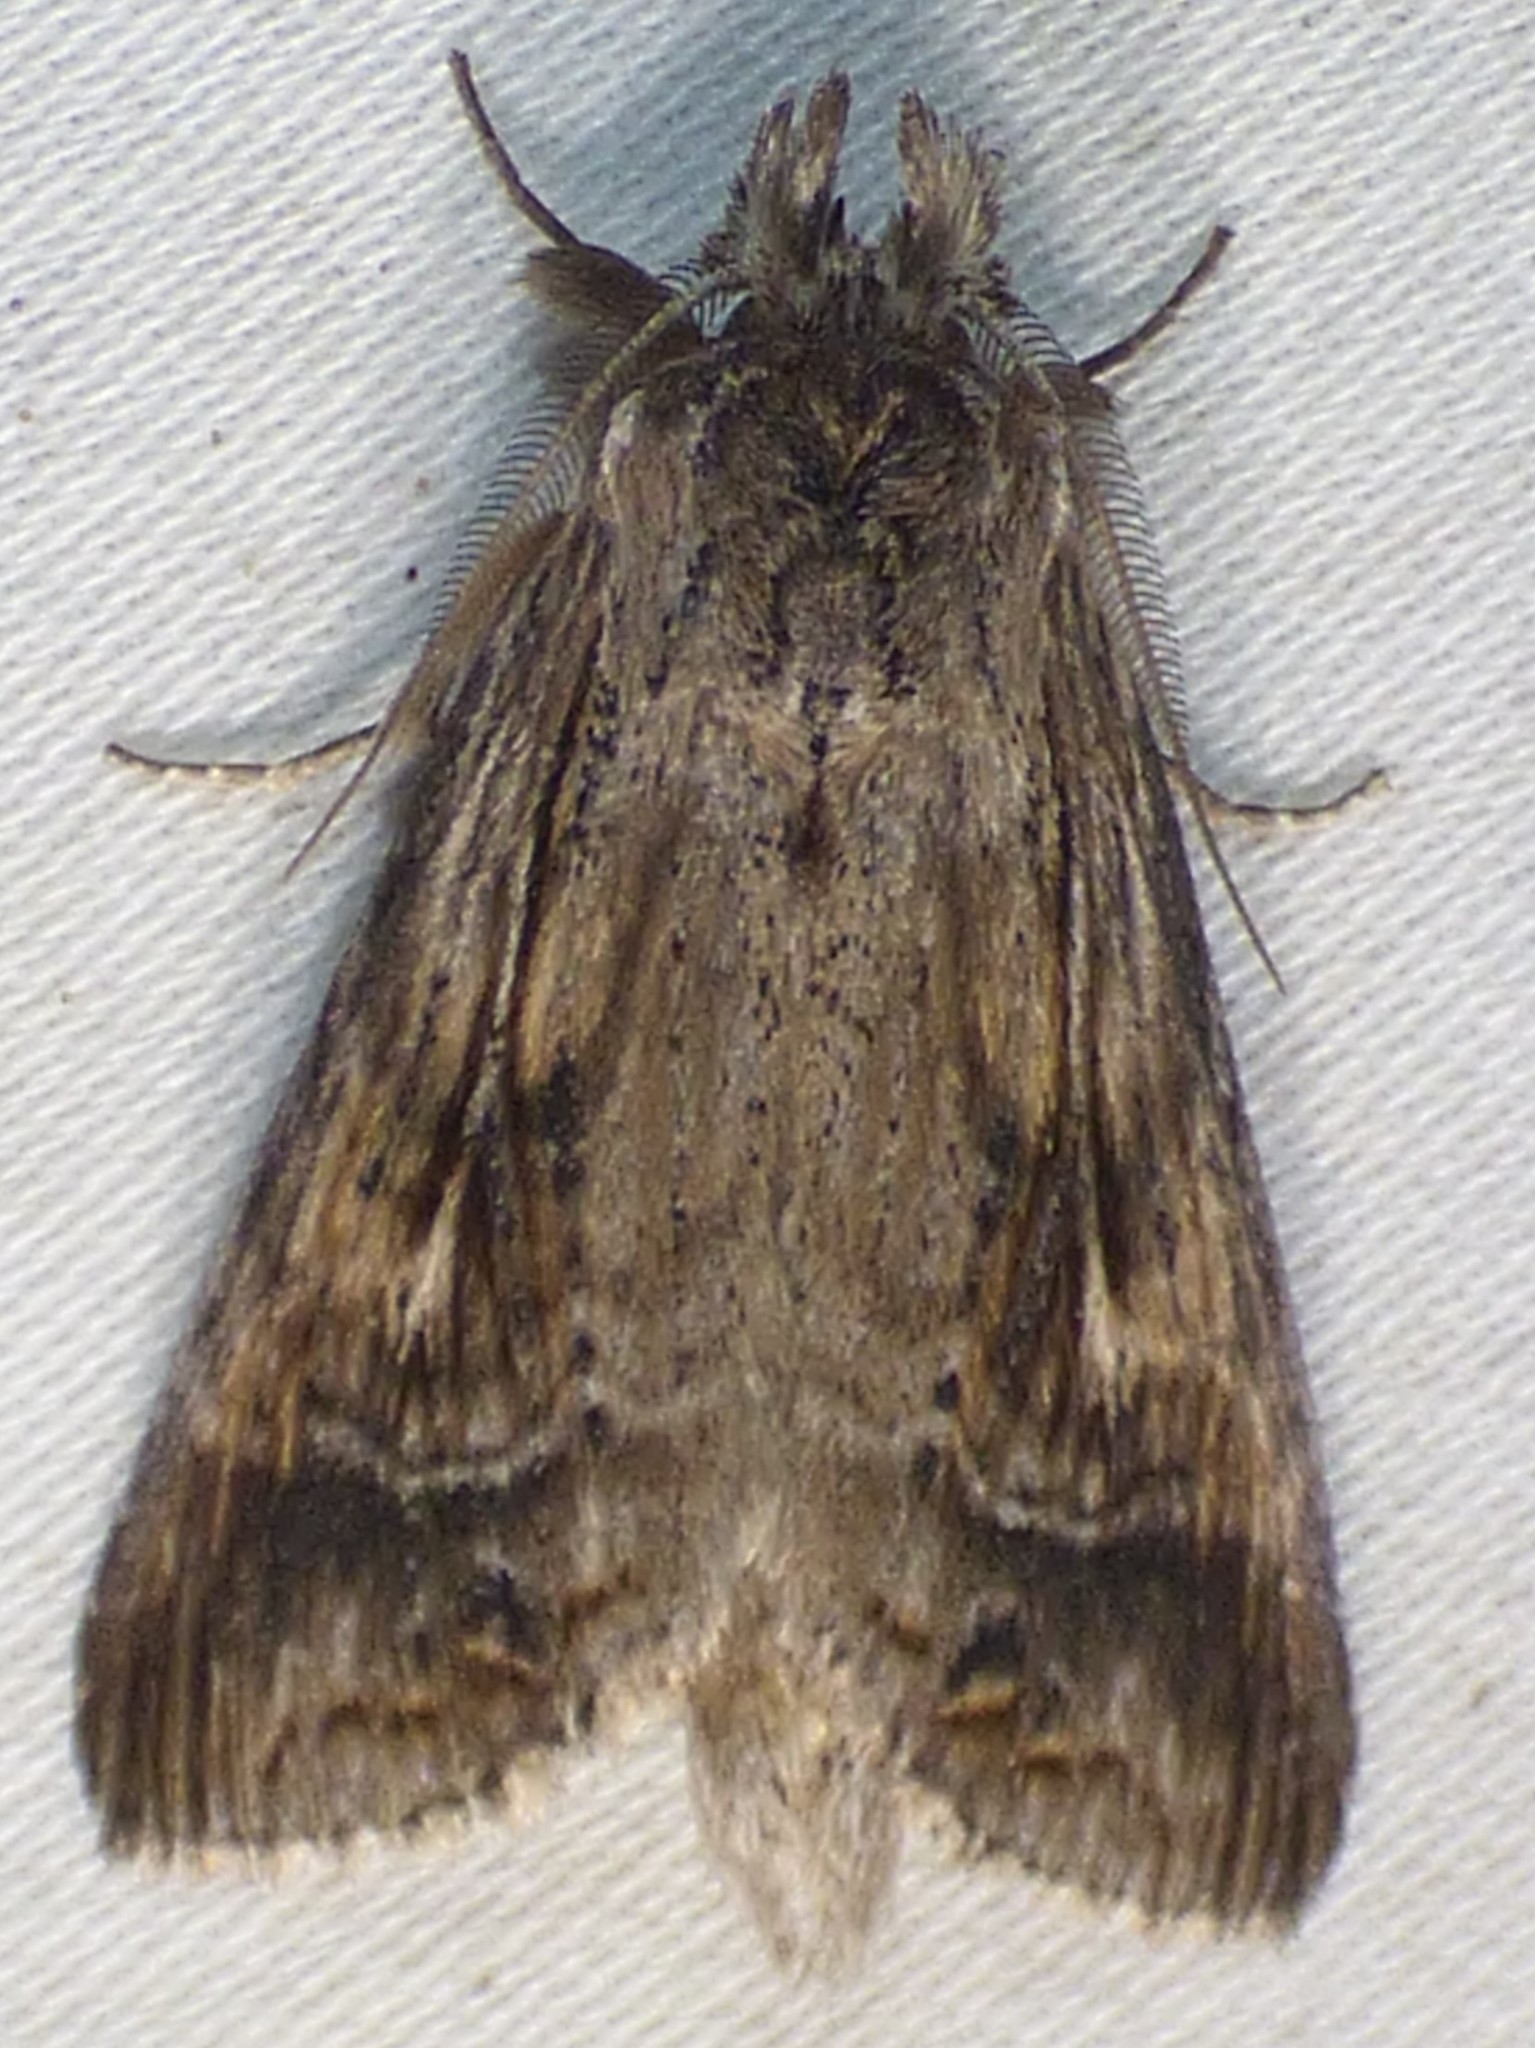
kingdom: Animalia
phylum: Arthropoda
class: Insecta
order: Lepidoptera
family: Notodontidae
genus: Dasylophia
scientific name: Dasylophia anguina
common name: Black-spotted prominent
